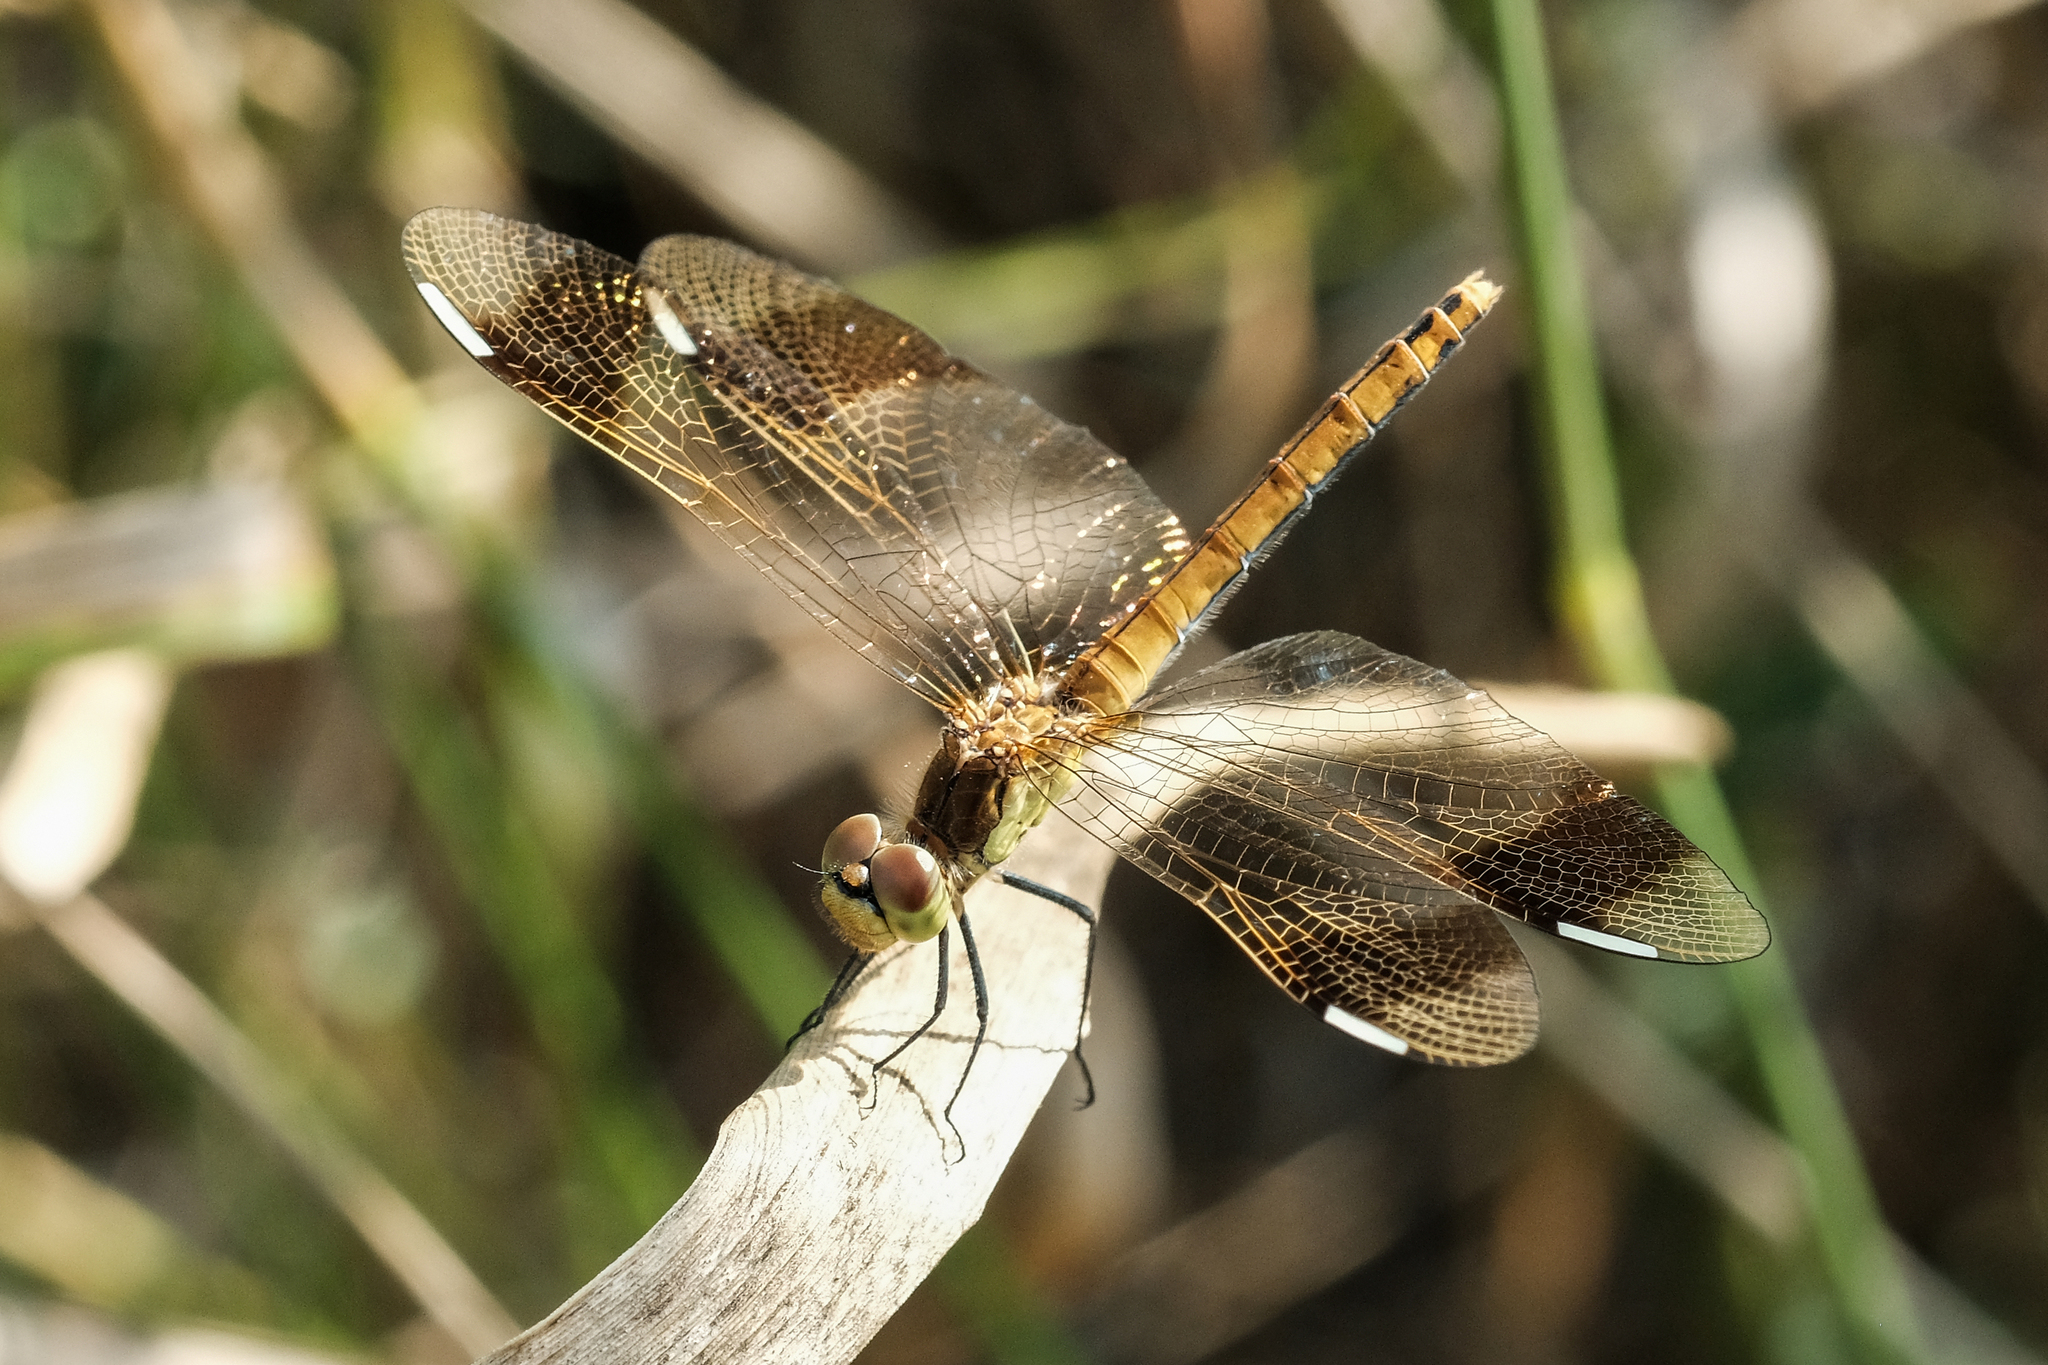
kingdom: Animalia
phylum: Arthropoda
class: Insecta
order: Odonata
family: Libellulidae
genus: Sympetrum
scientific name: Sympetrum pedemontanum
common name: Banded darter
